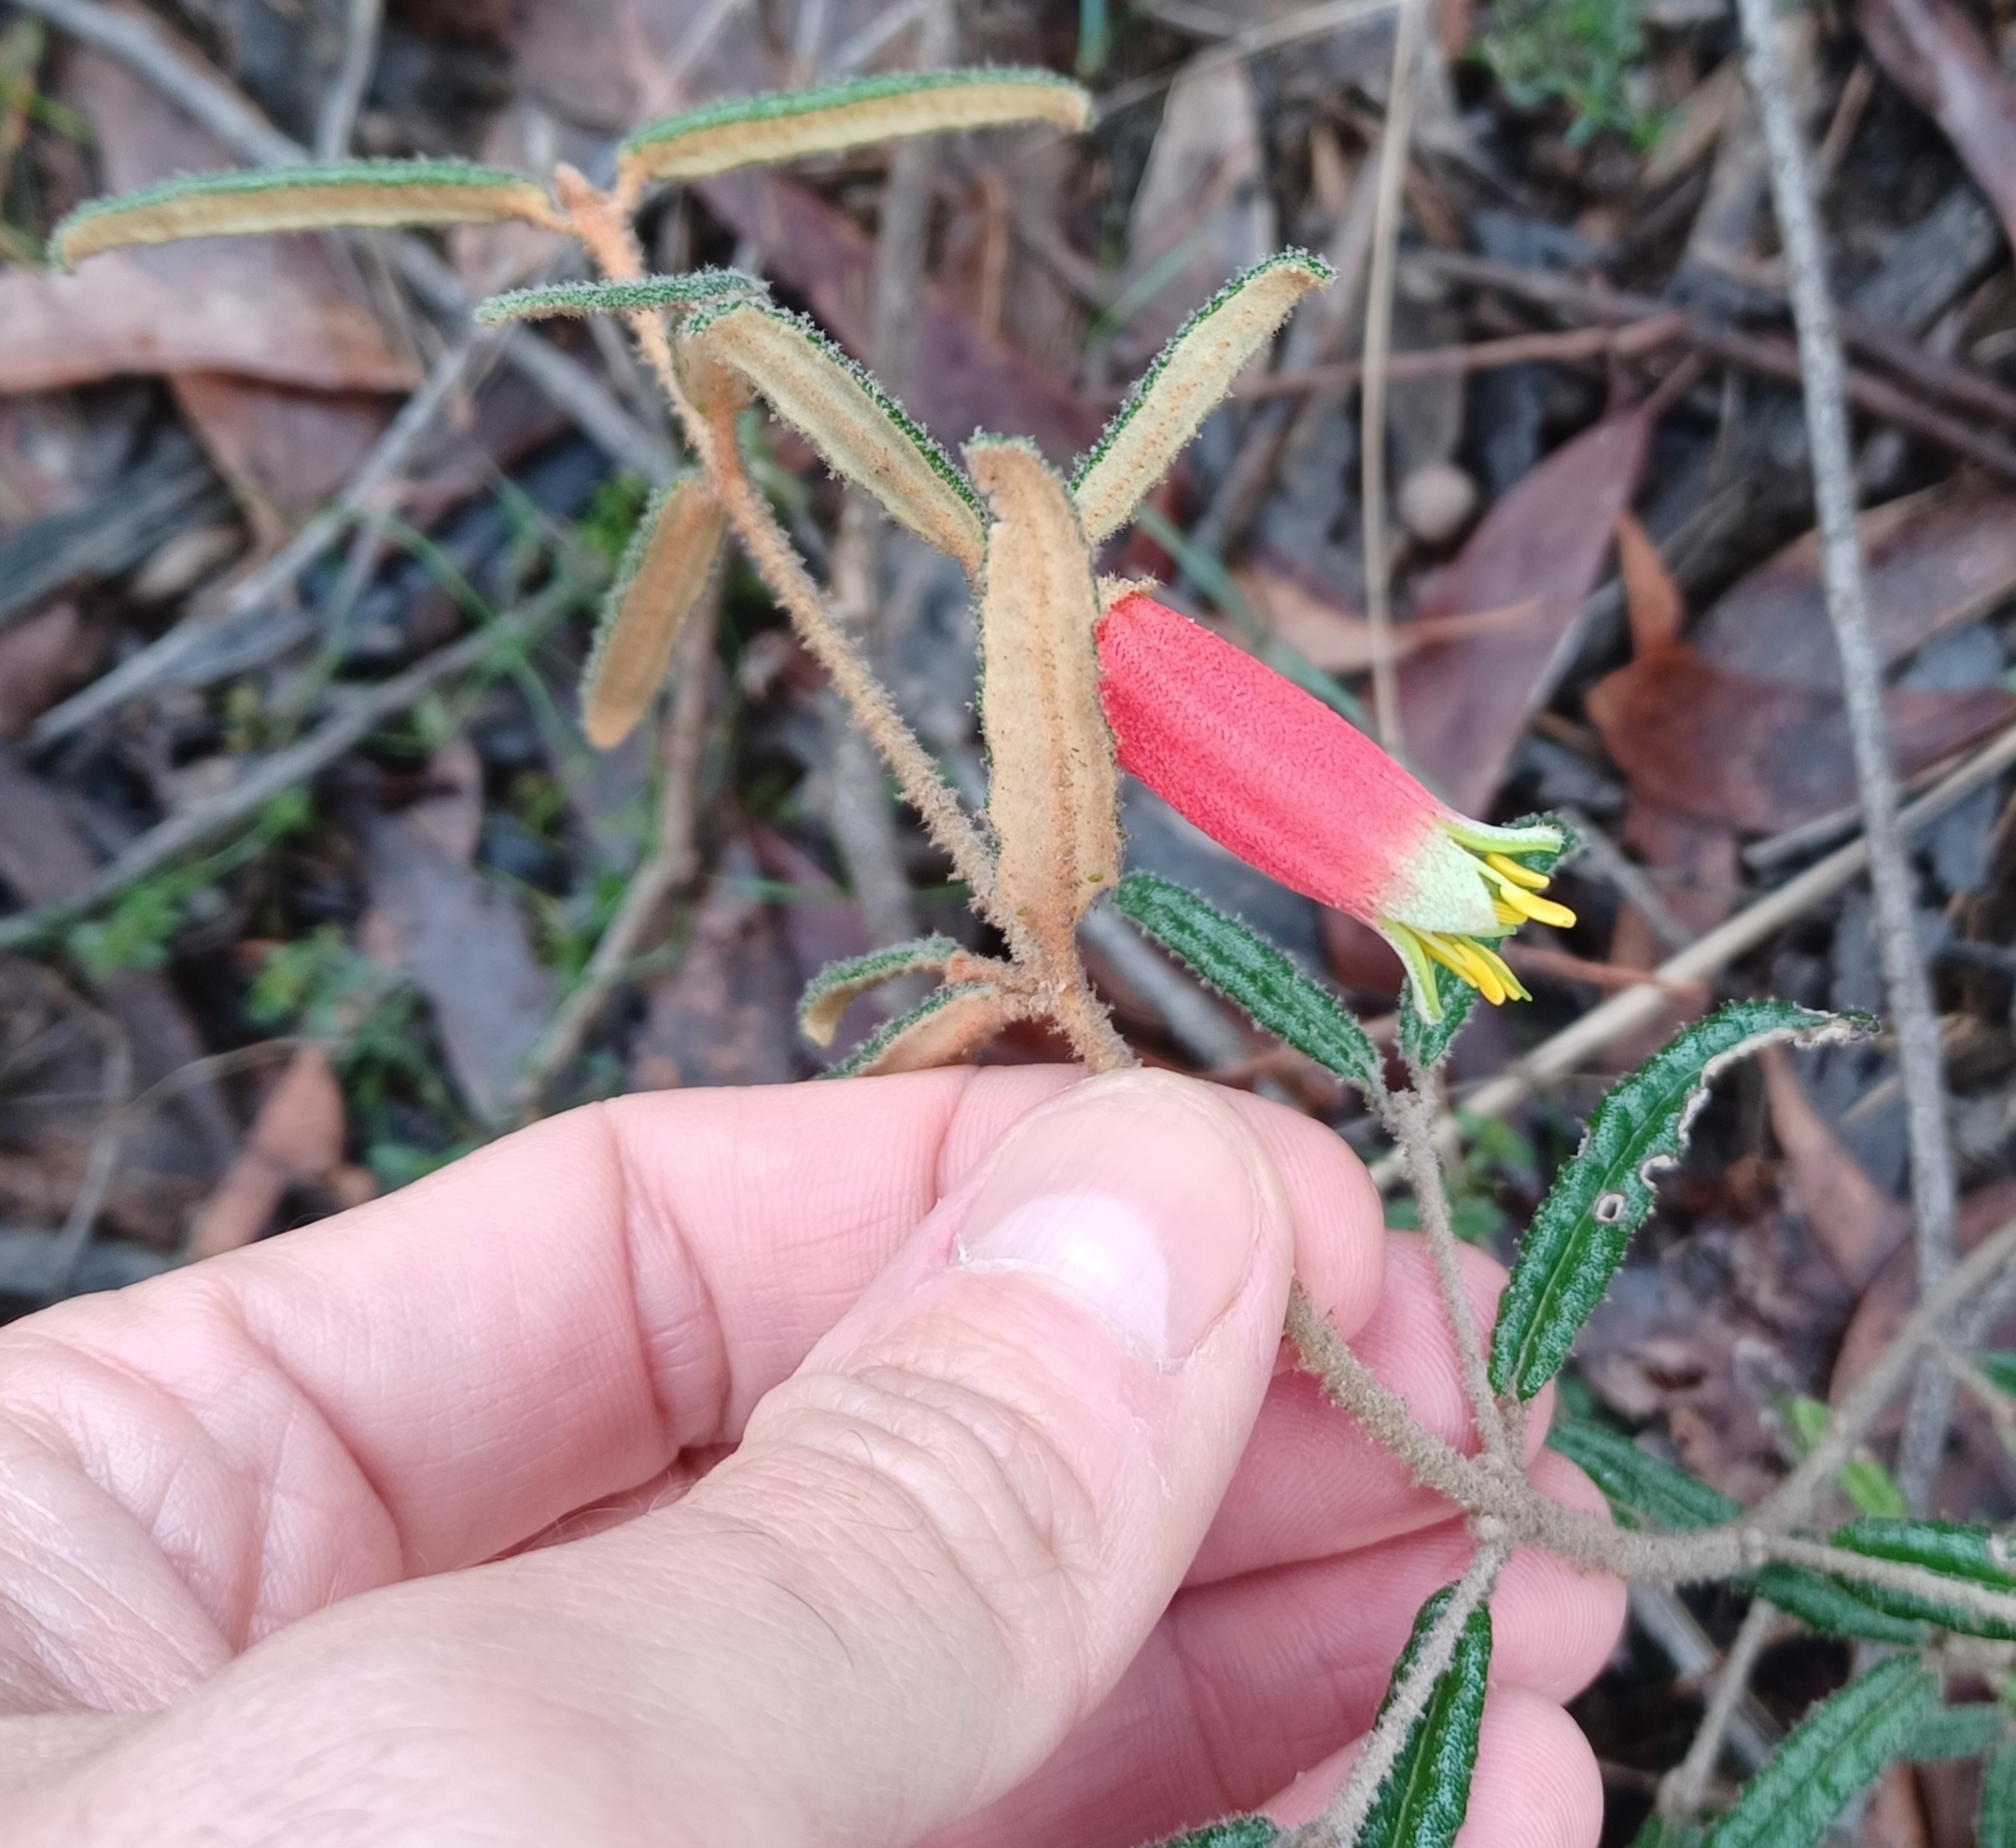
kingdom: Plantae
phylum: Tracheophyta
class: Magnoliopsida
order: Sapindales
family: Rutaceae
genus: Correa
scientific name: Correa reflexa
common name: Common correa
